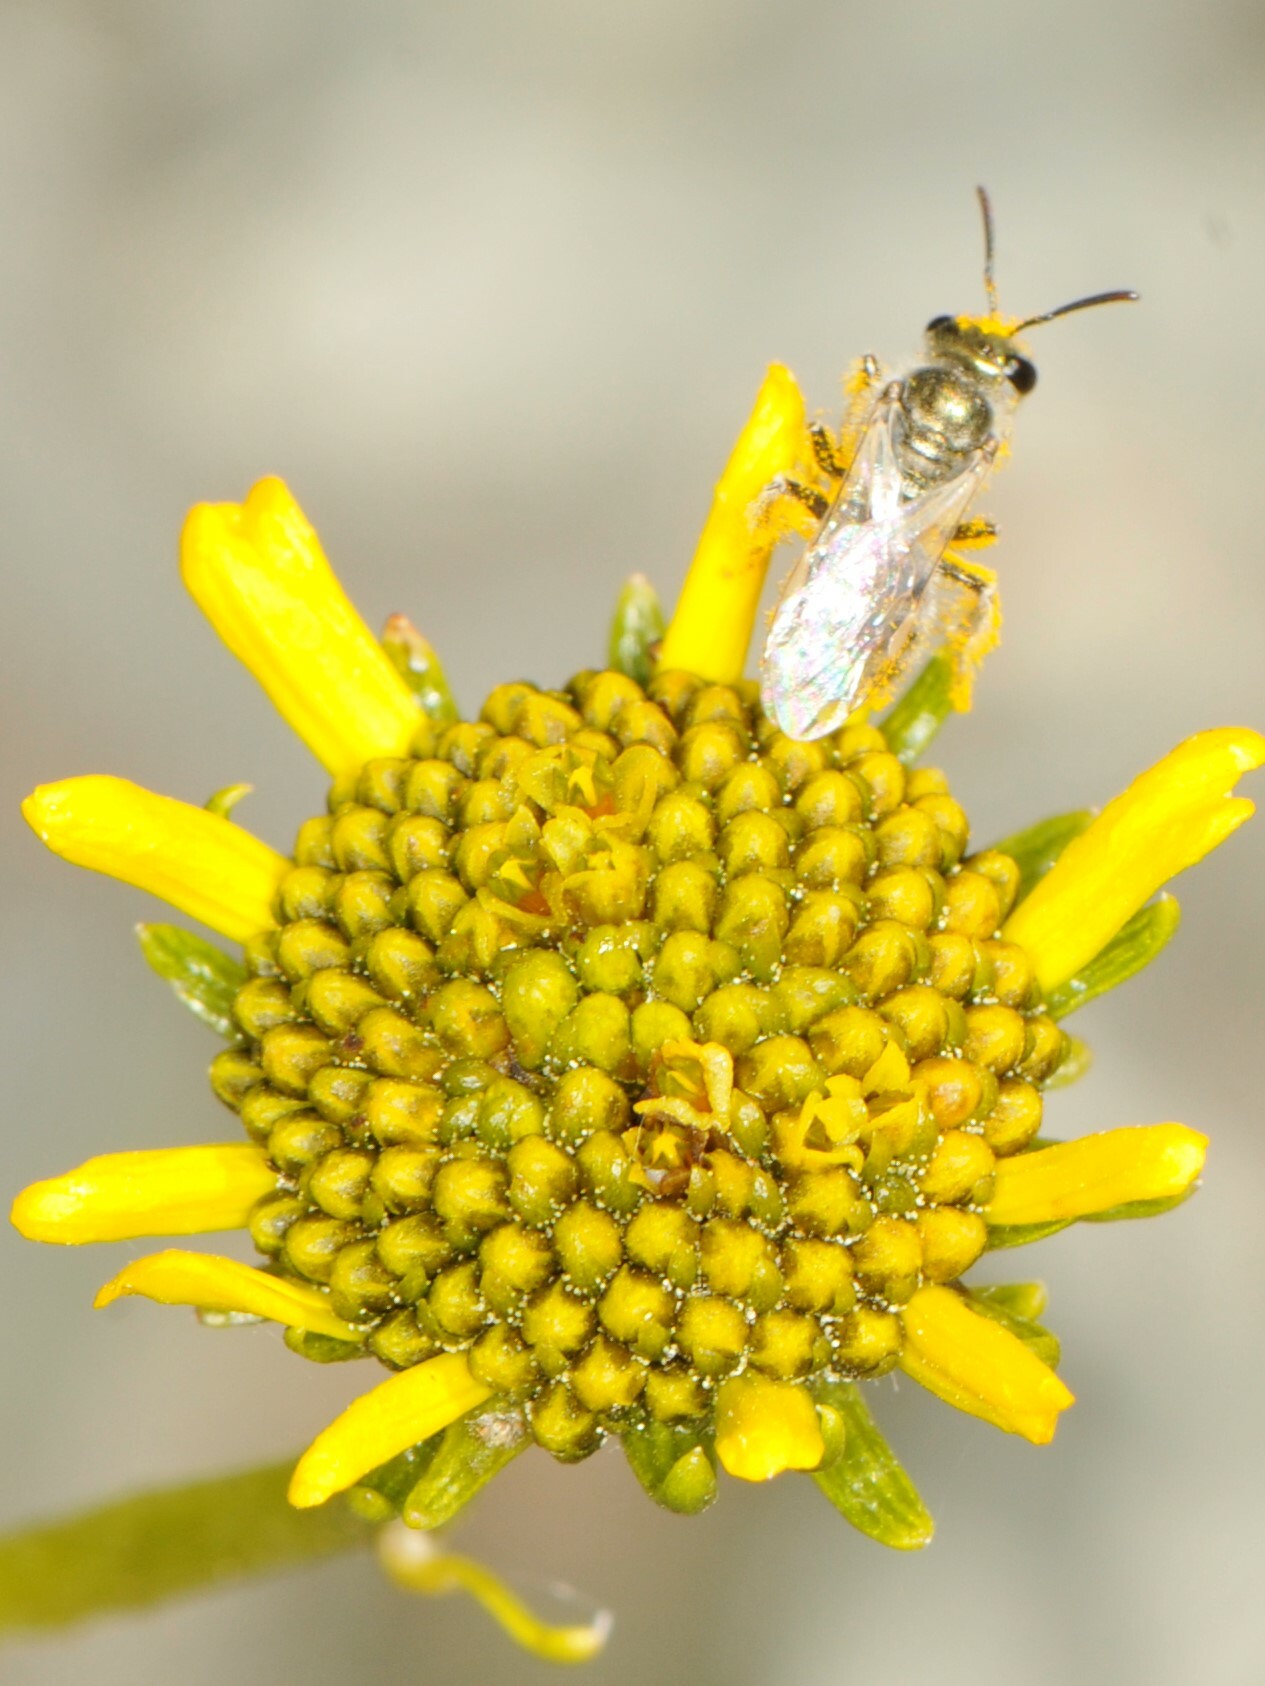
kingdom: Animalia
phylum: Arthropoda
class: Insecta
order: Hymenoptera
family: Halictidae
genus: Dialictus
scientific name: Dialictus
